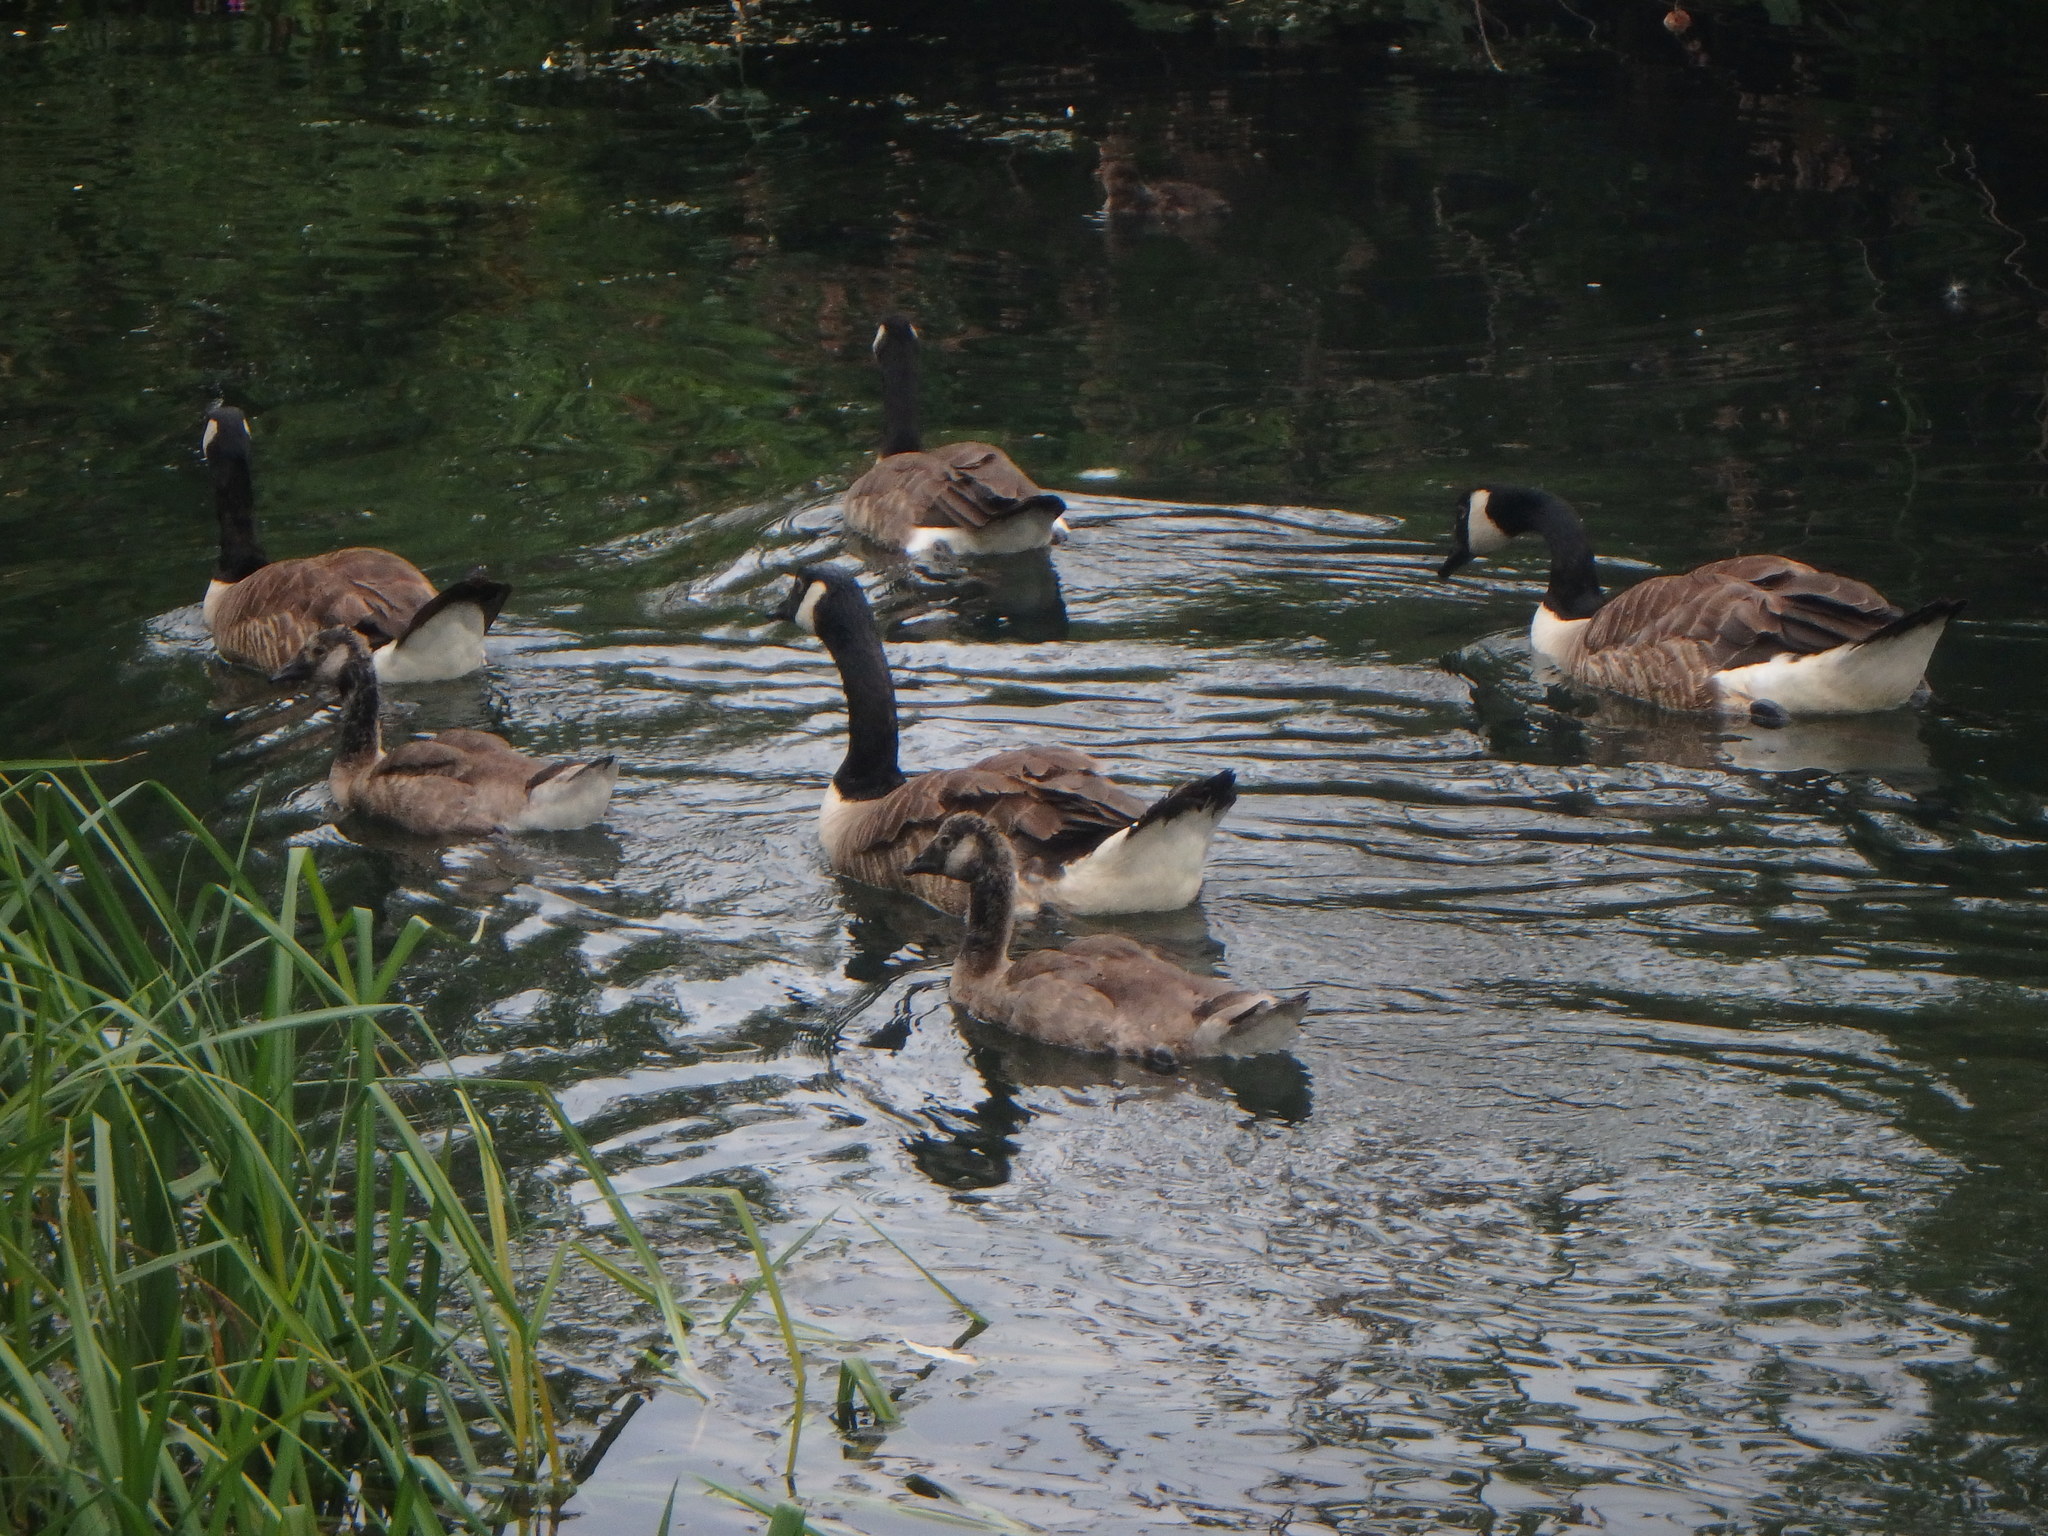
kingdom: Animalia
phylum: Chordata
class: Aves
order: Anseriformes
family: Anatidae
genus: Branta
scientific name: Branta canadensis
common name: Canada goose
